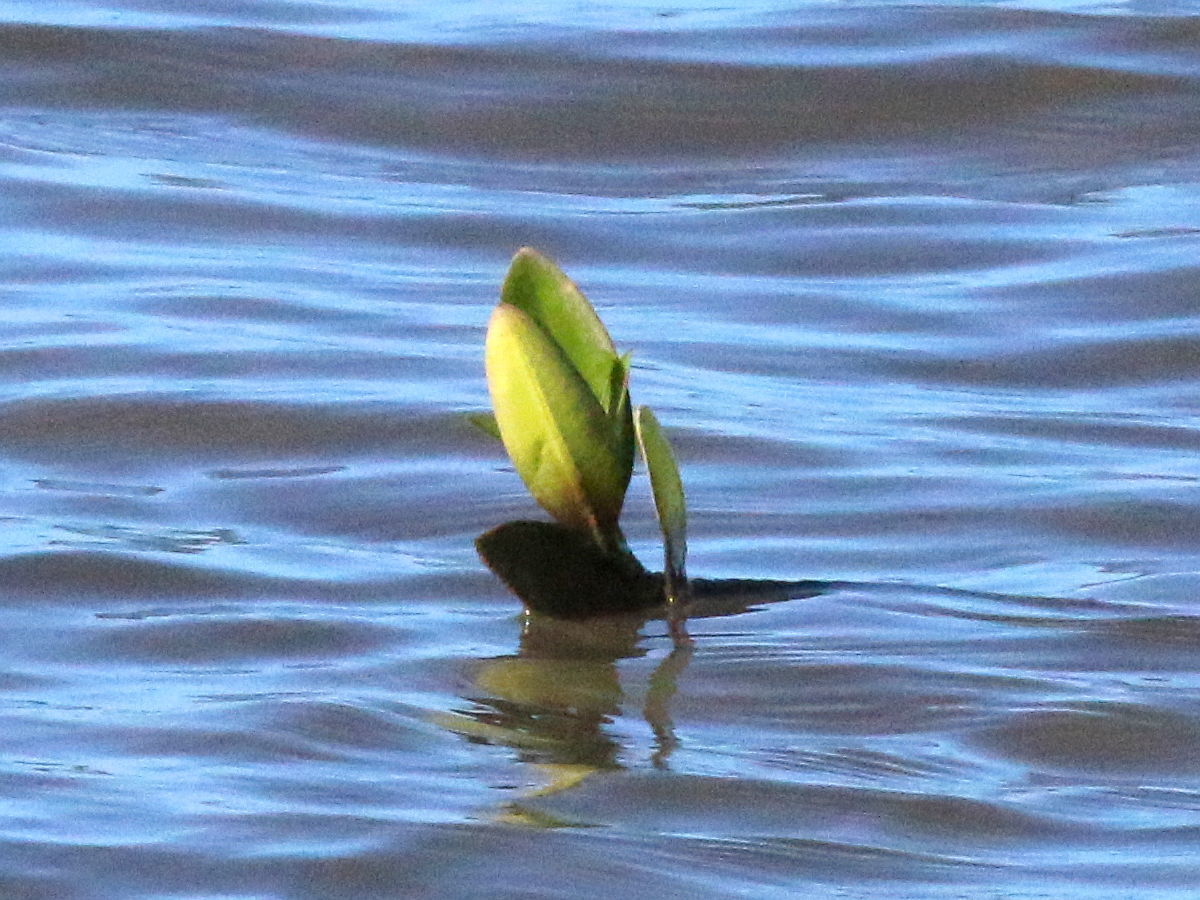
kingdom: Plantae
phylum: Tracheophyta
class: Magnoliopsida
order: Malpighiales
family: Rhizophoraceae
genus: Rhizophora
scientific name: Rhizophora mangle
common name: Red mangrove
